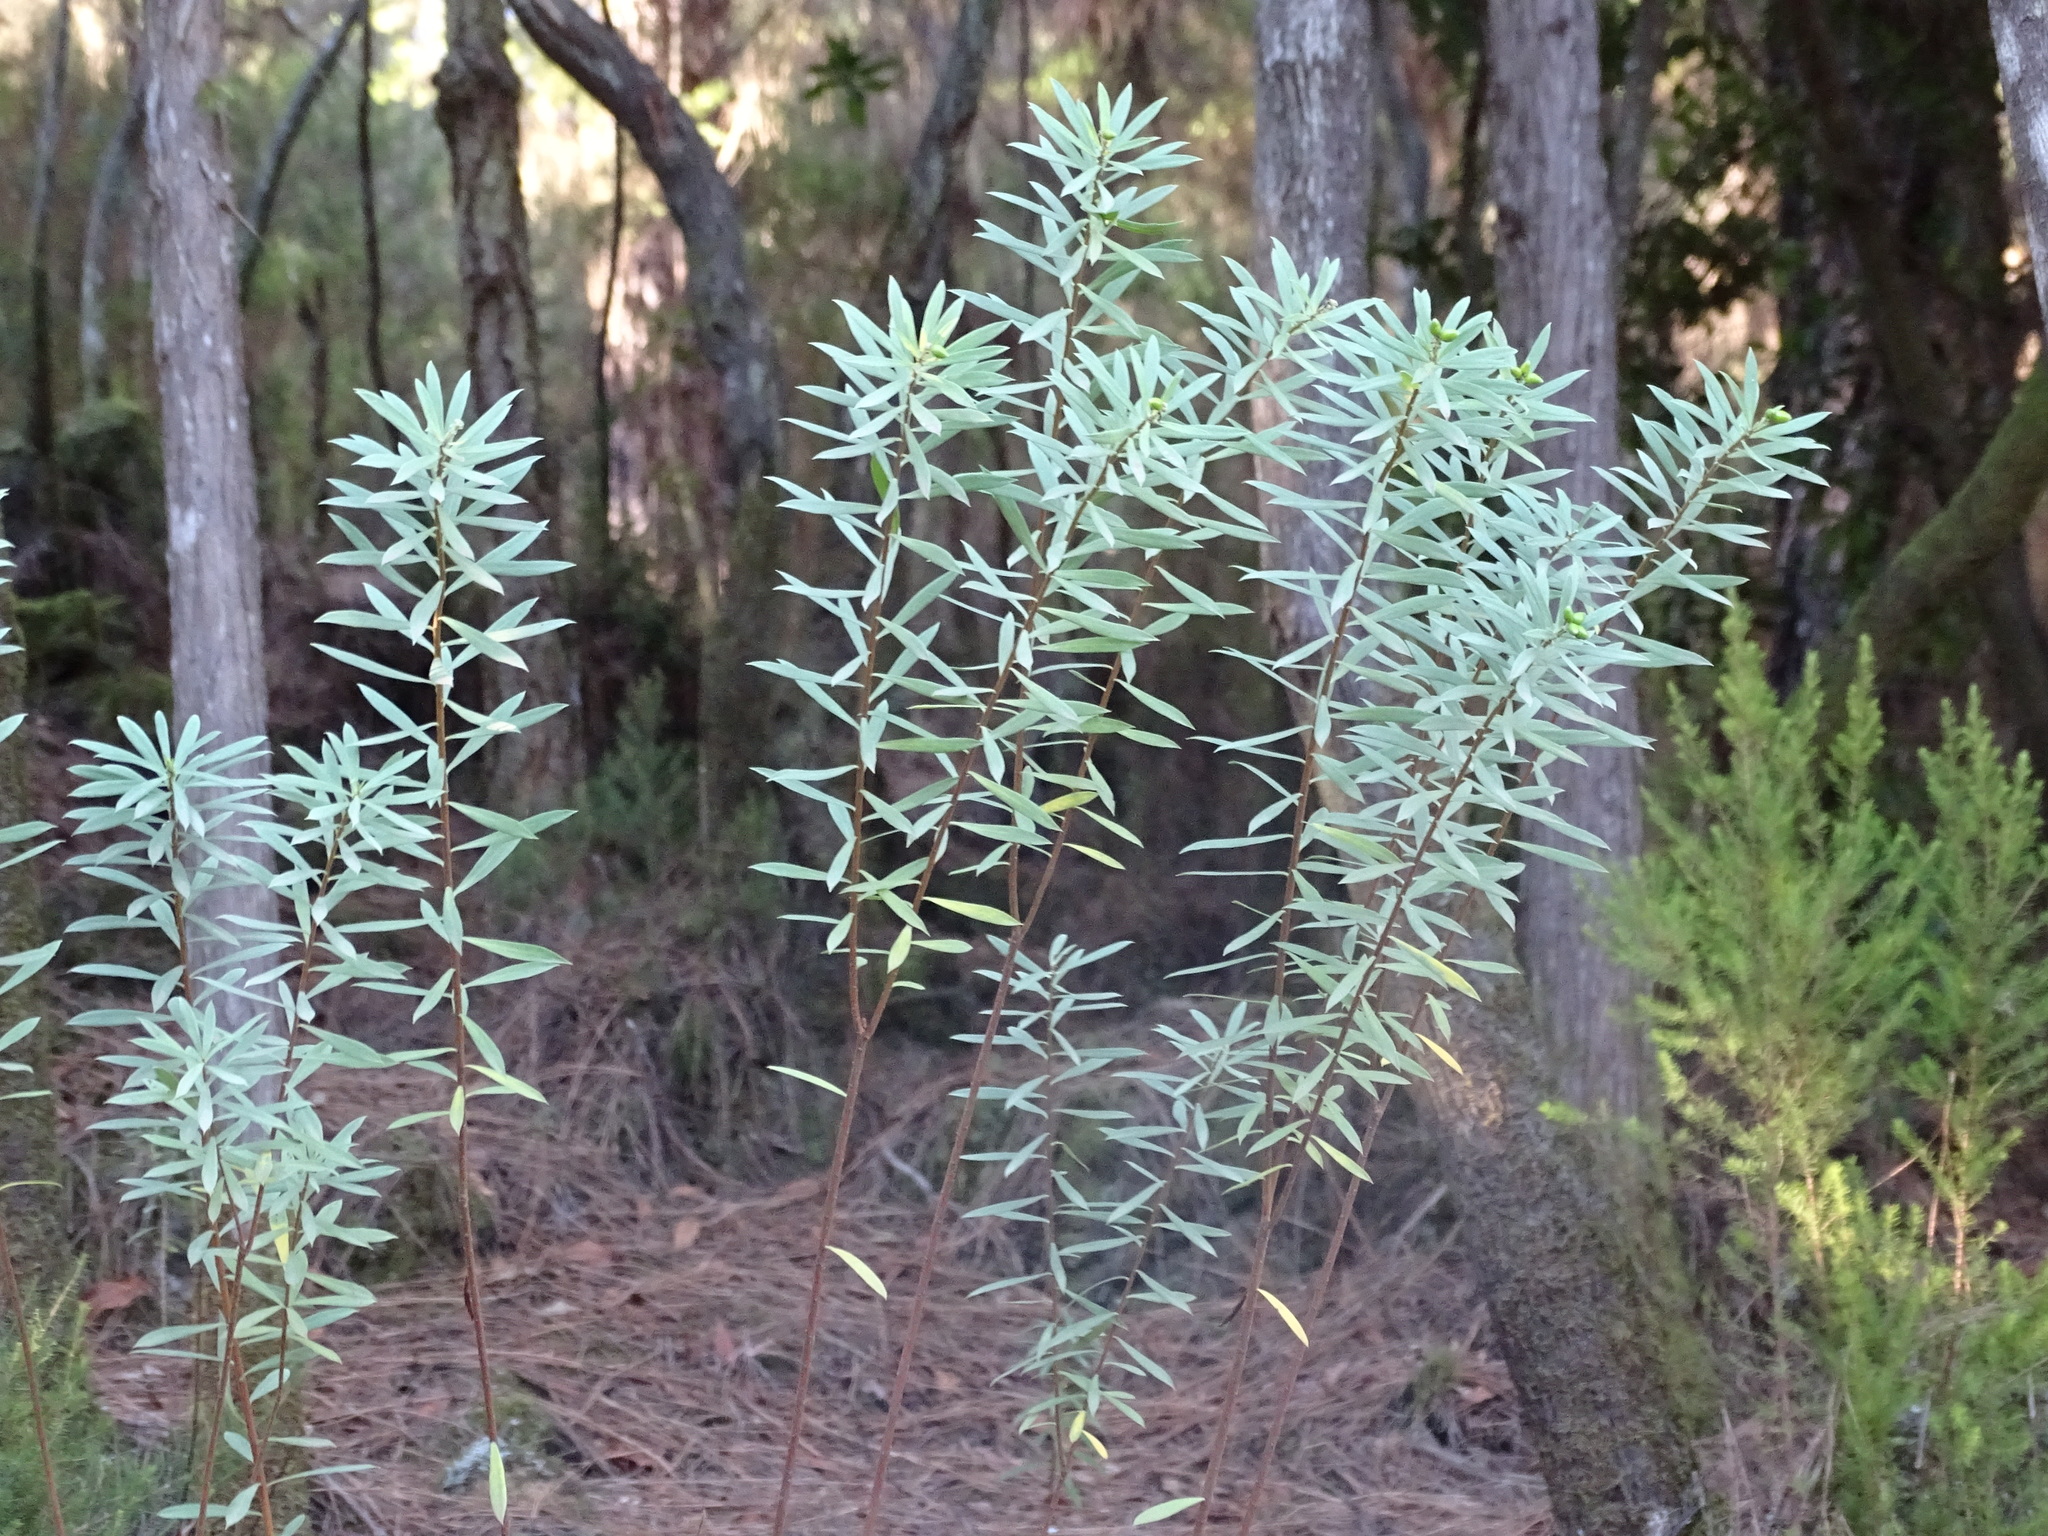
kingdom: Plantae
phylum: Tracheophyta
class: Magnoliopsida
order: Malvales
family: Thymelaeaceae
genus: Daphne
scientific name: Daphne gnidium
